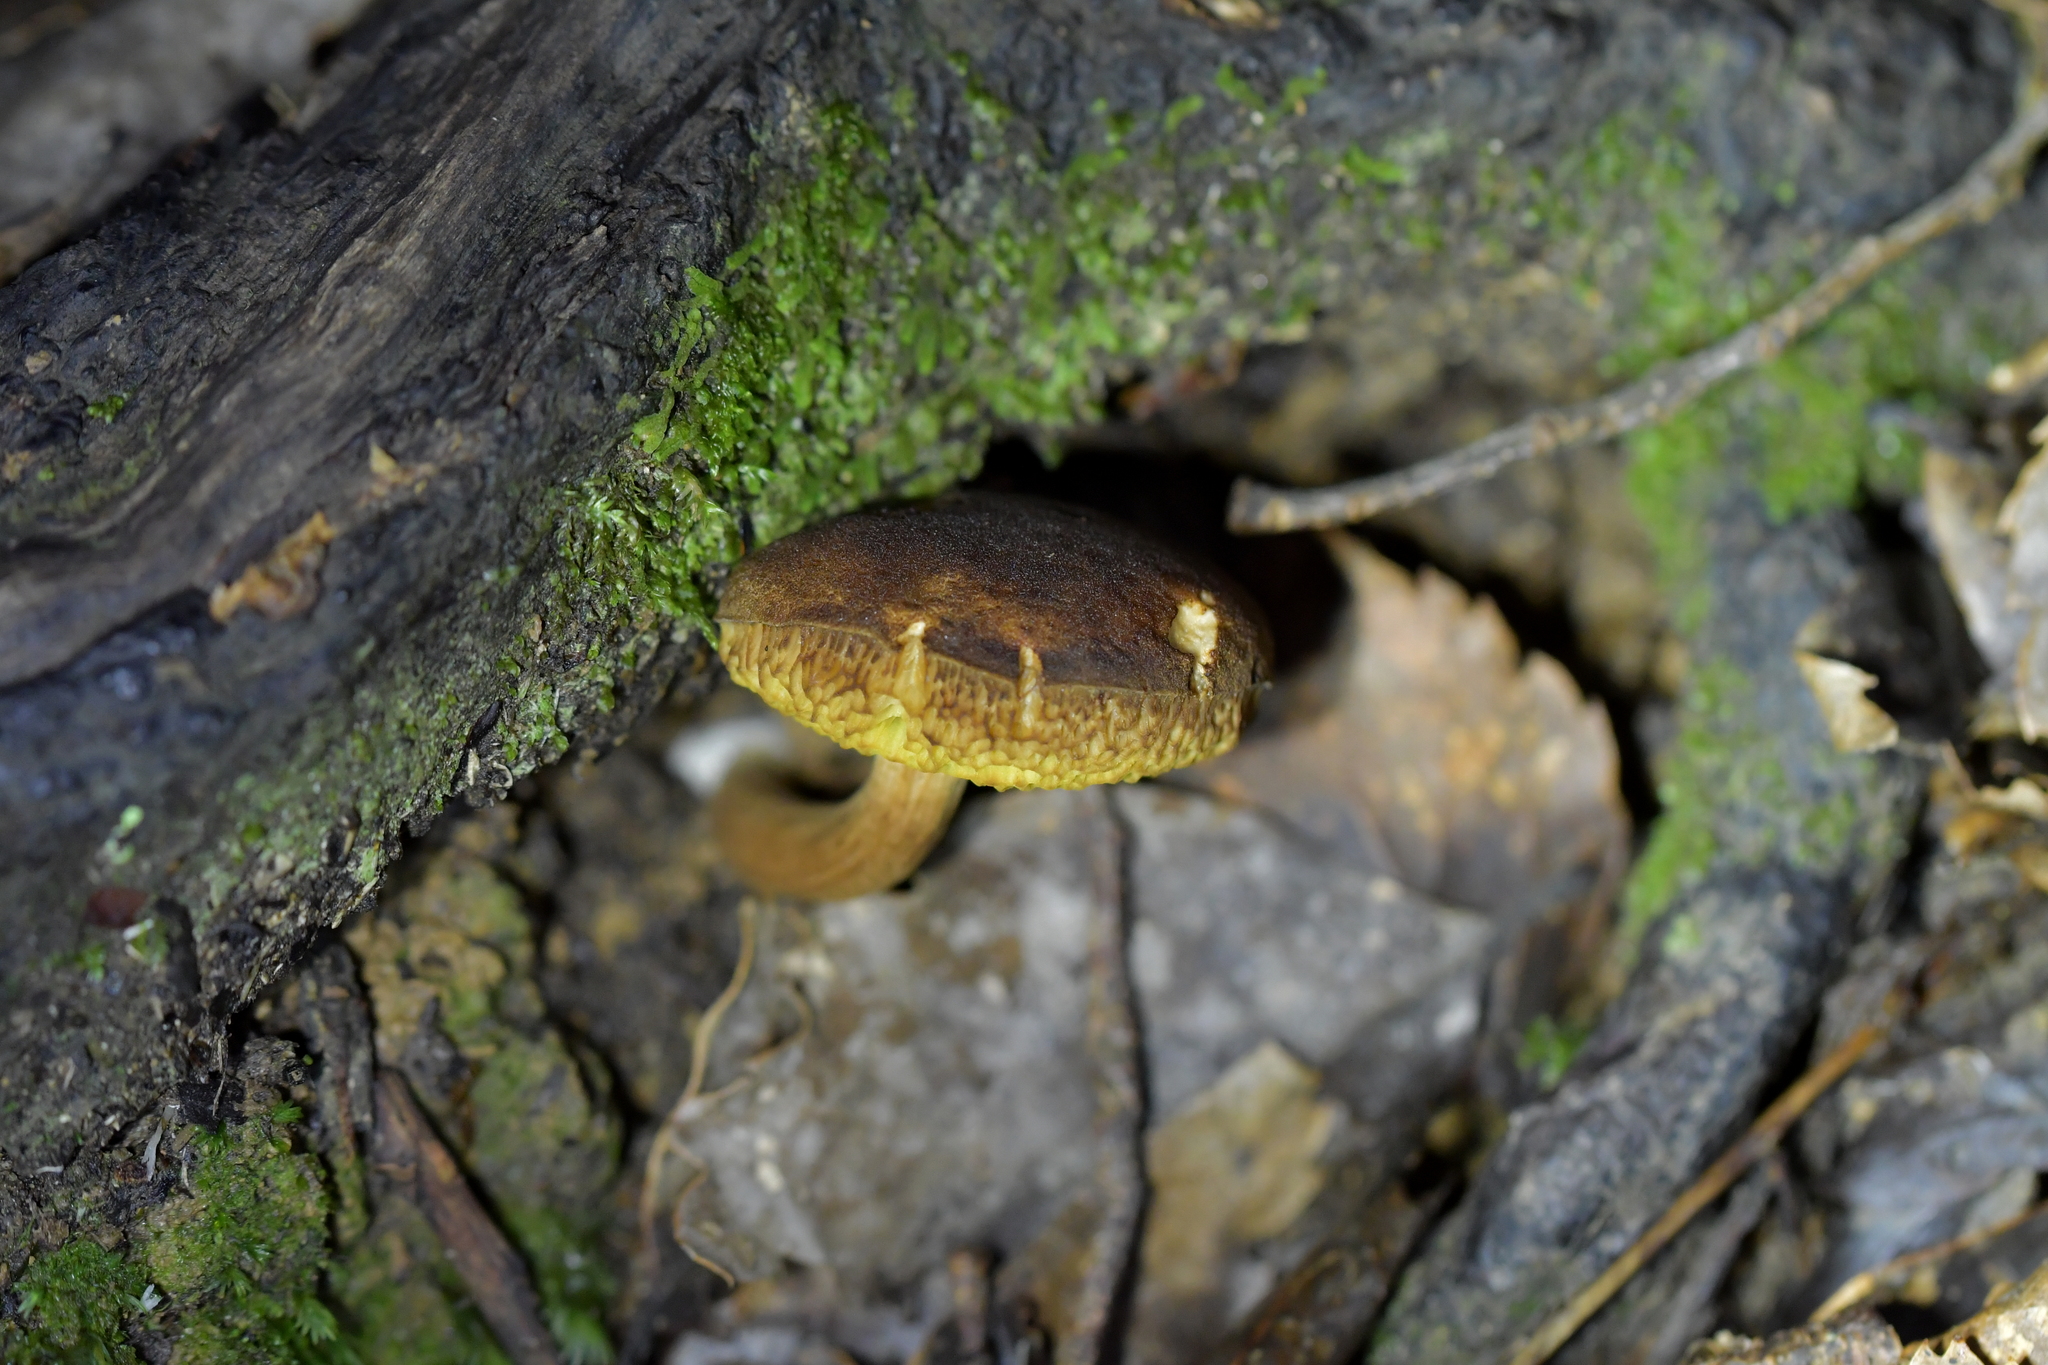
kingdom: Fungi
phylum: Basidiomycota
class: Agaricomycetes
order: Boletales
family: Boletaceae
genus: Xerocomus
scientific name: Xerocomus squamulosus
